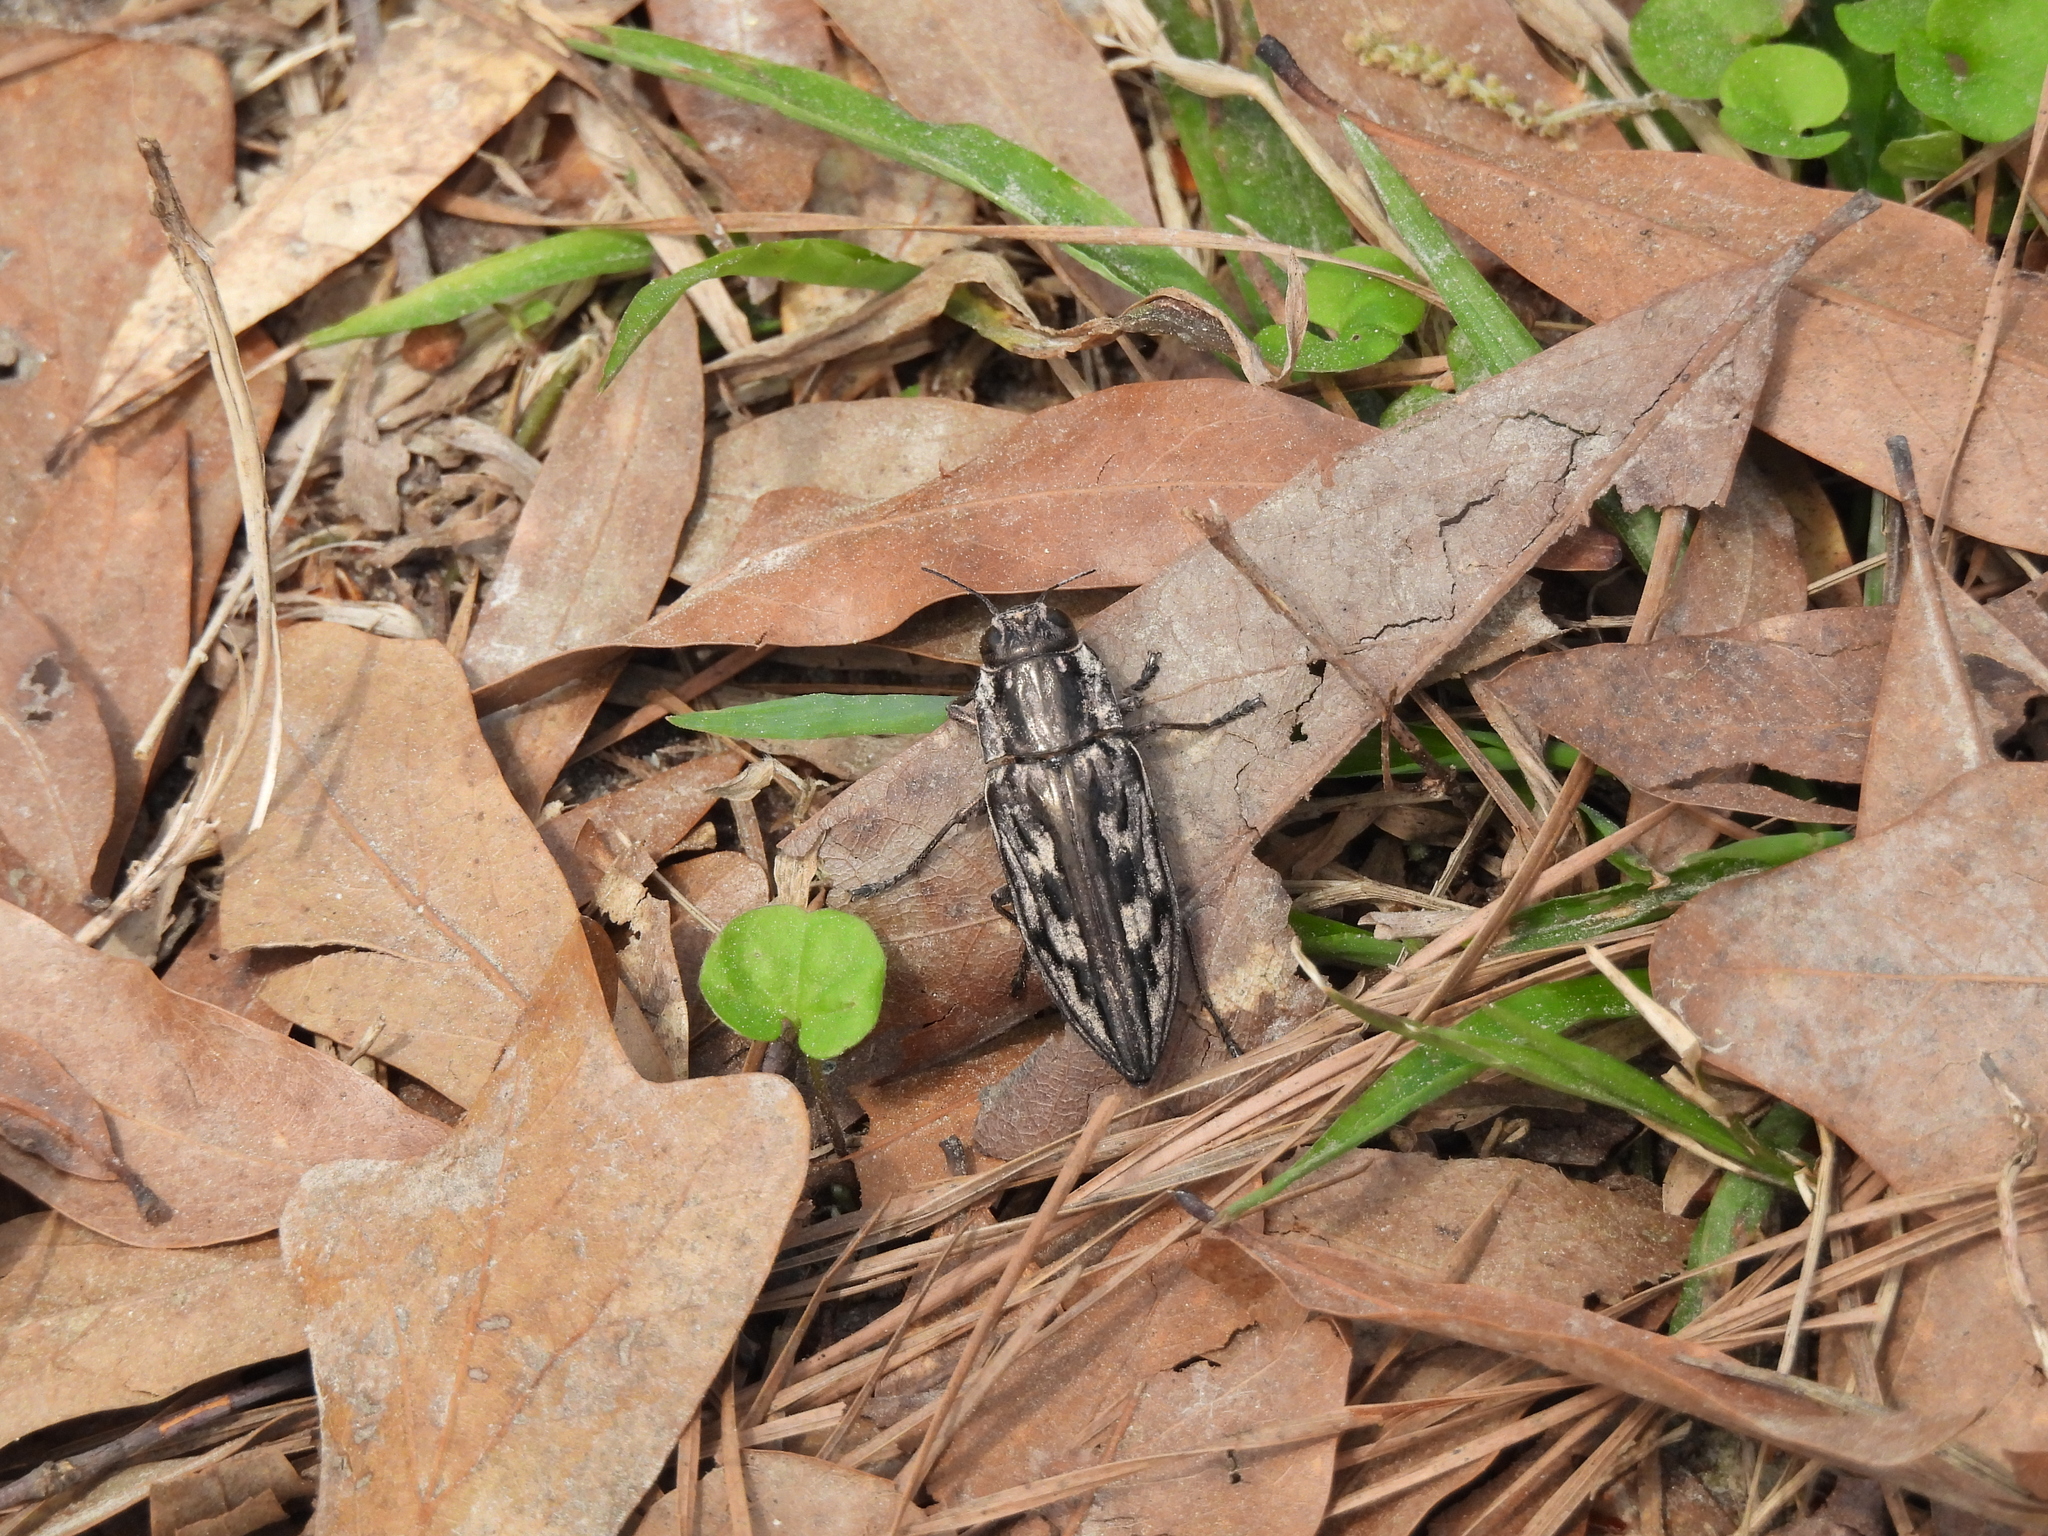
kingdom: Animalia
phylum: Arthropoda
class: Insecta
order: Coleoptera
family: Buprestidae
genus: Chalcophora
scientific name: Chalcophora virginiensis
